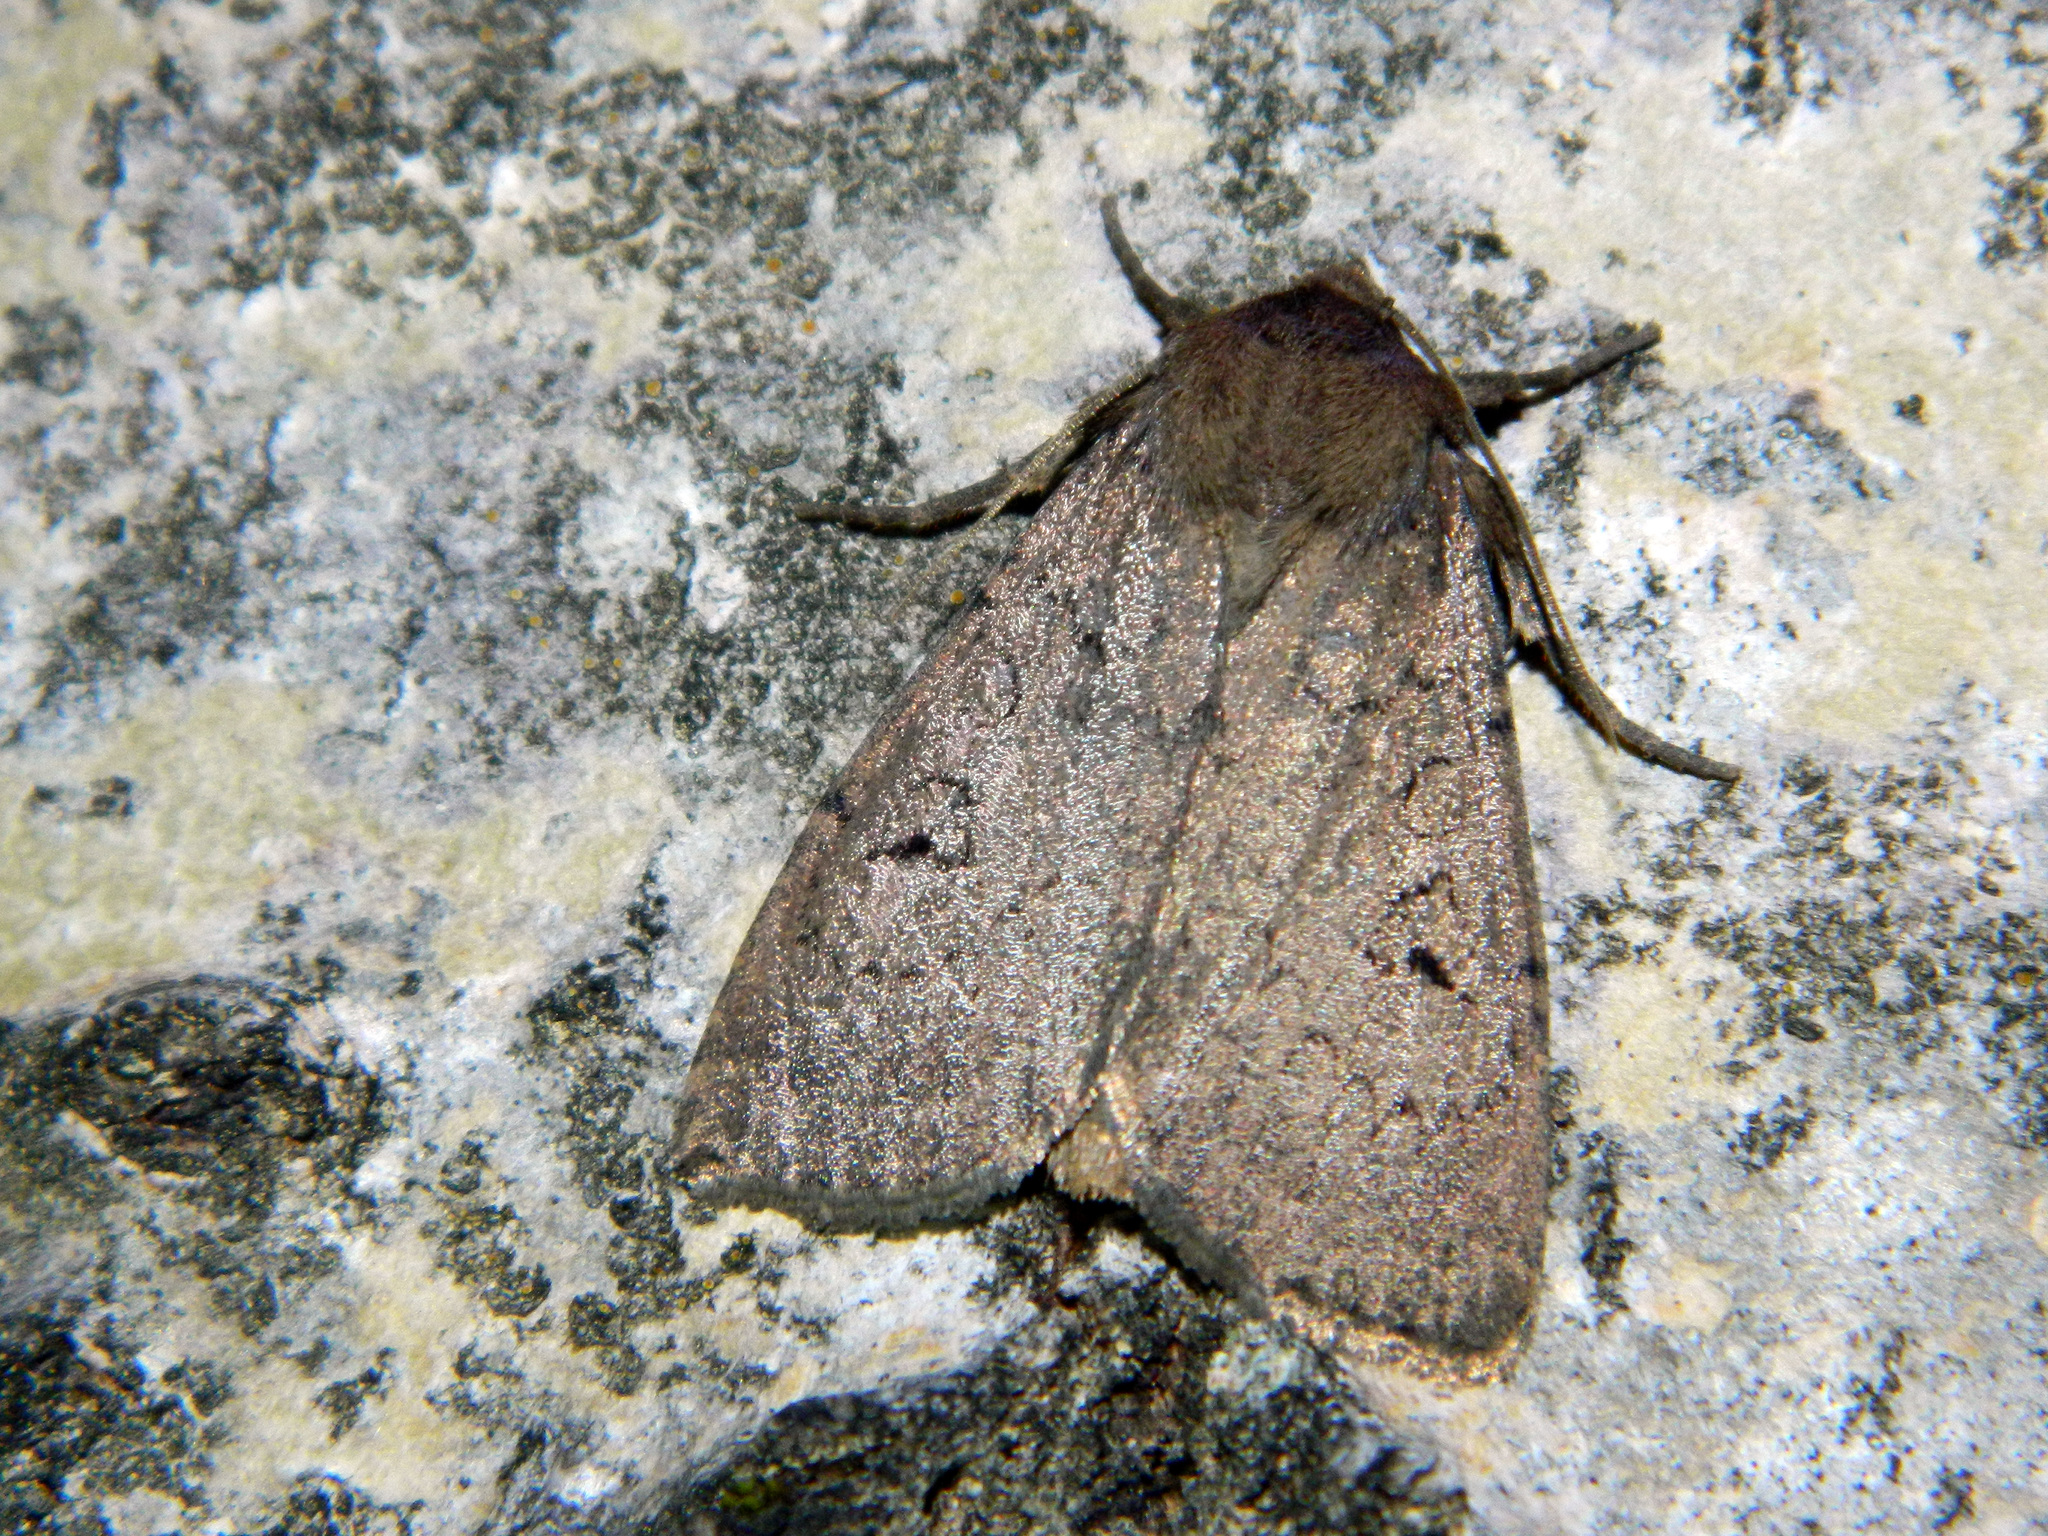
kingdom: Animalia
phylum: Arthropoda
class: Insecta
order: Lepidoptera
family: Noctuidae
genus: Graphiphora
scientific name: Graphiphora augur
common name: Double dart
